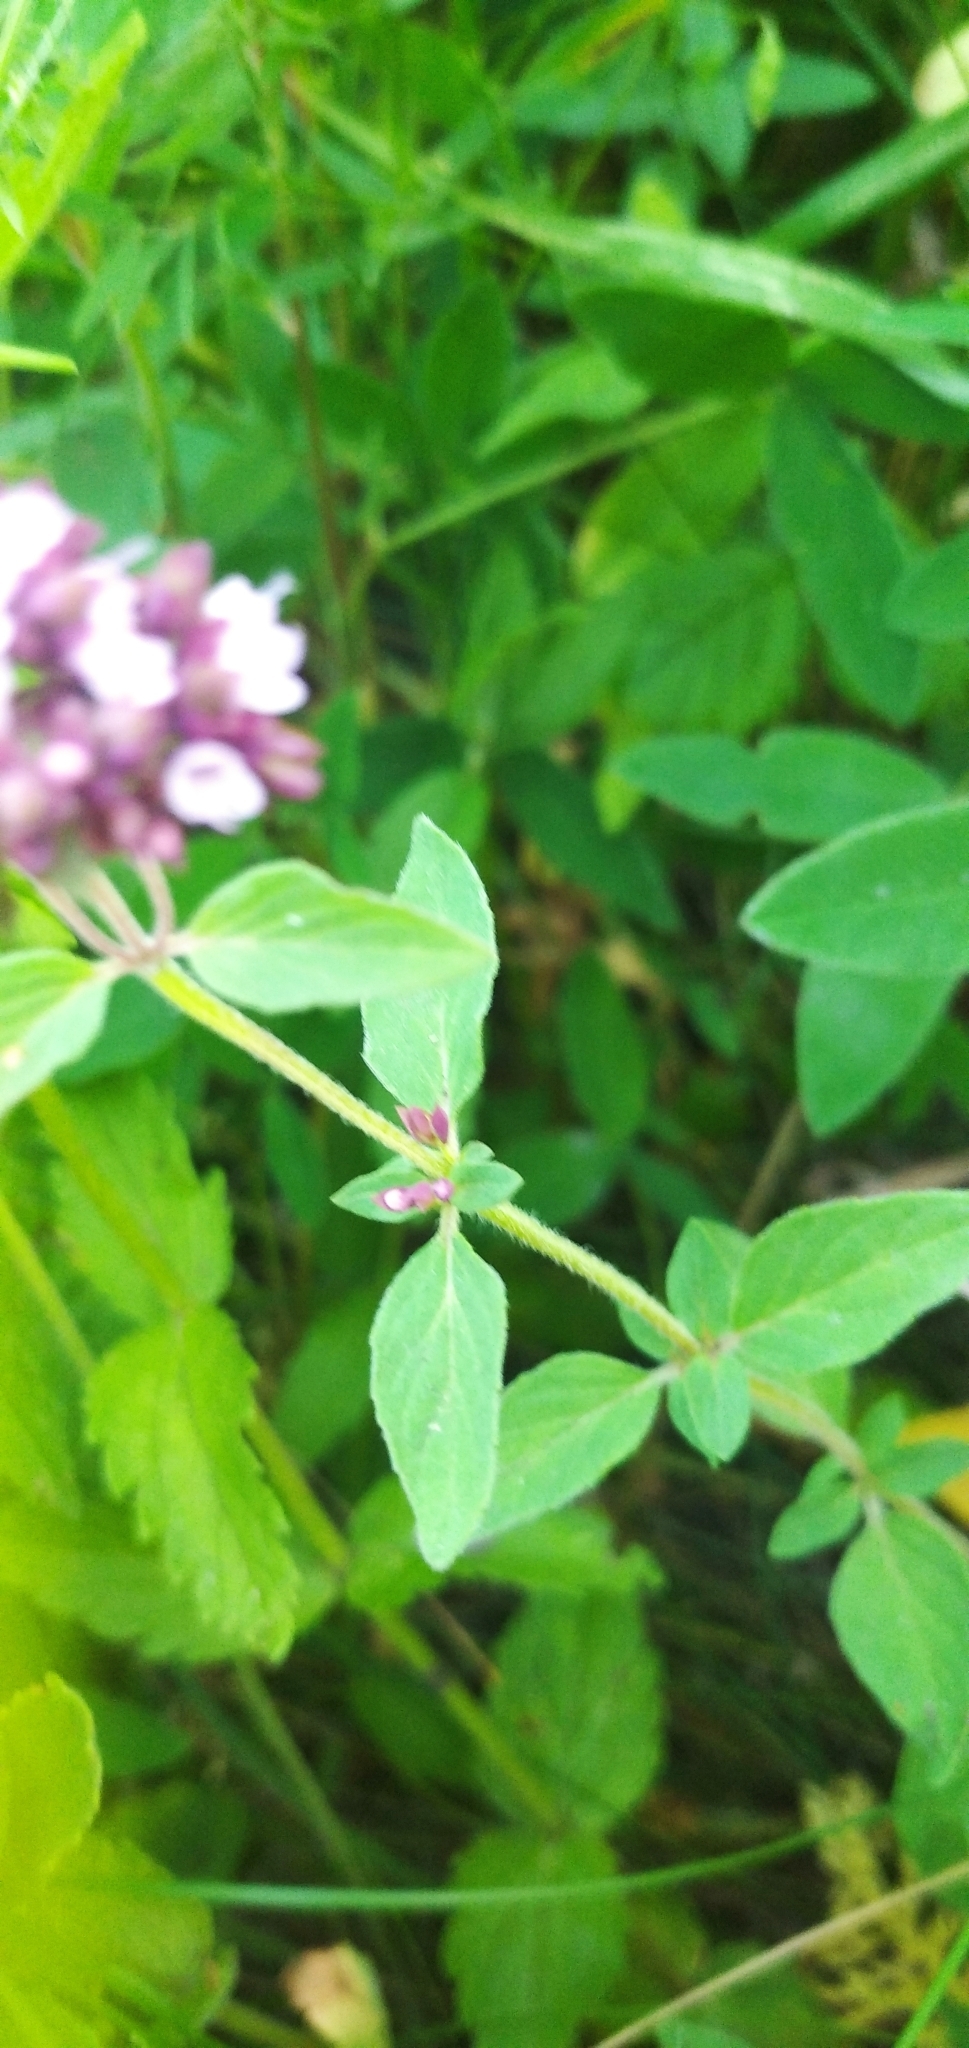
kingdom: Plantae
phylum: Tracheophyta
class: Magnoliopsida
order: Lamiales
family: Lamiaceae
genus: Origanum
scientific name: Origanum vulgare
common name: Wild marjoram
